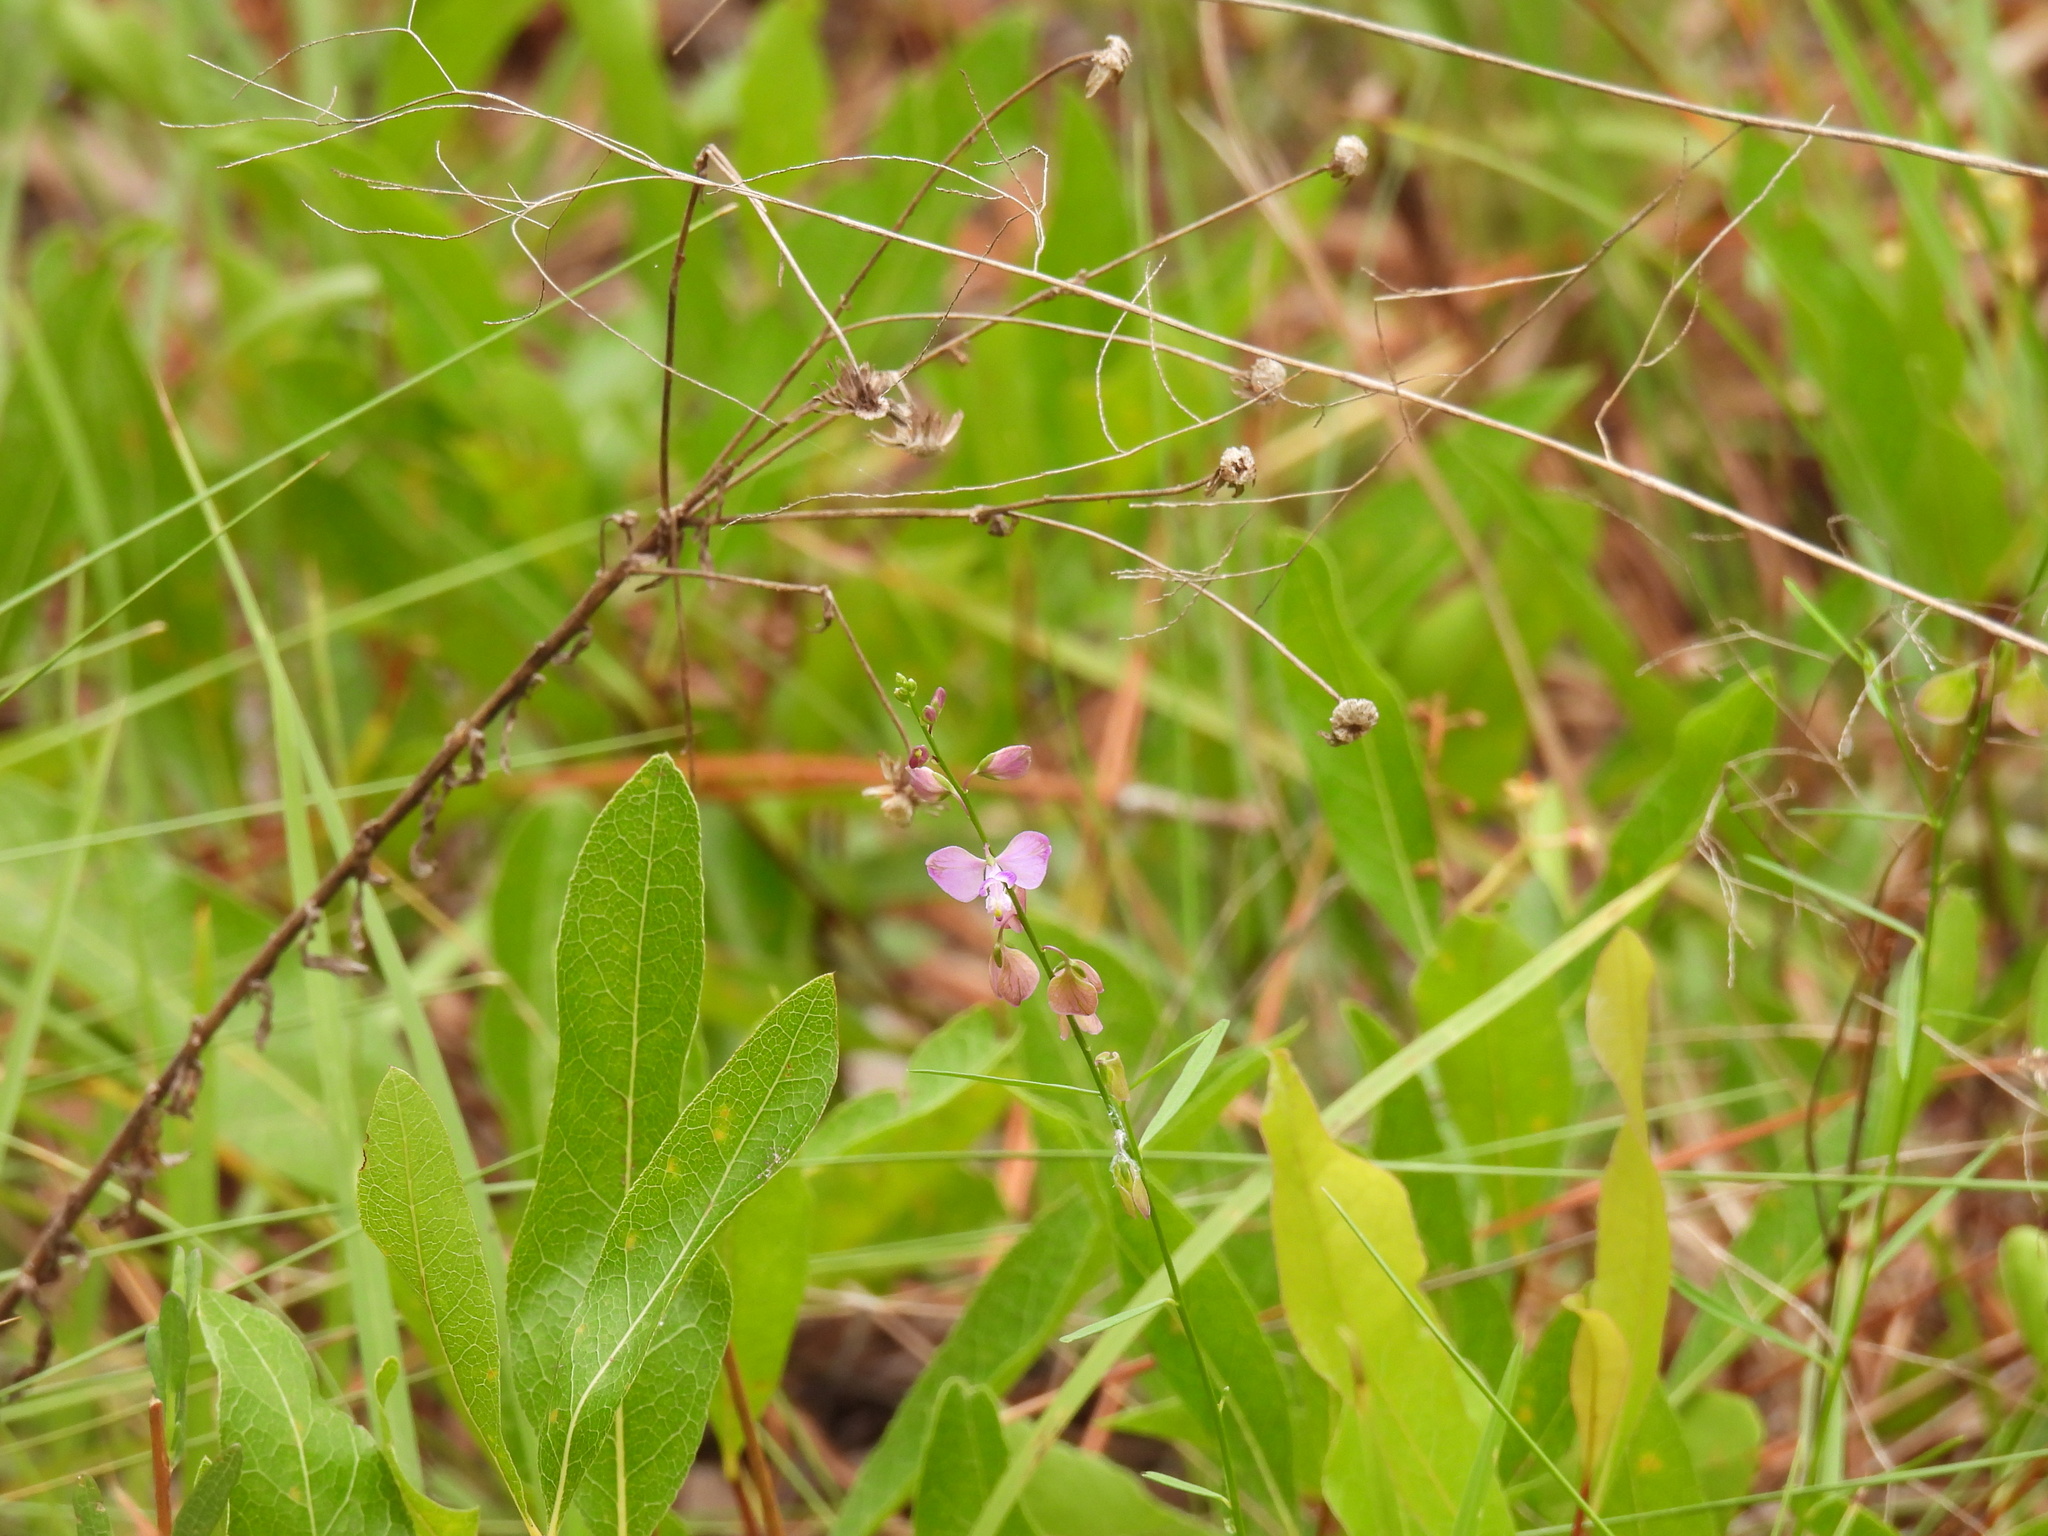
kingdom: Plantae
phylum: Tracheophyta
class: Magnoliopsida
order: Fabales
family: Polygalaceae
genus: Asemeia
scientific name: Asemeia grandiflora
